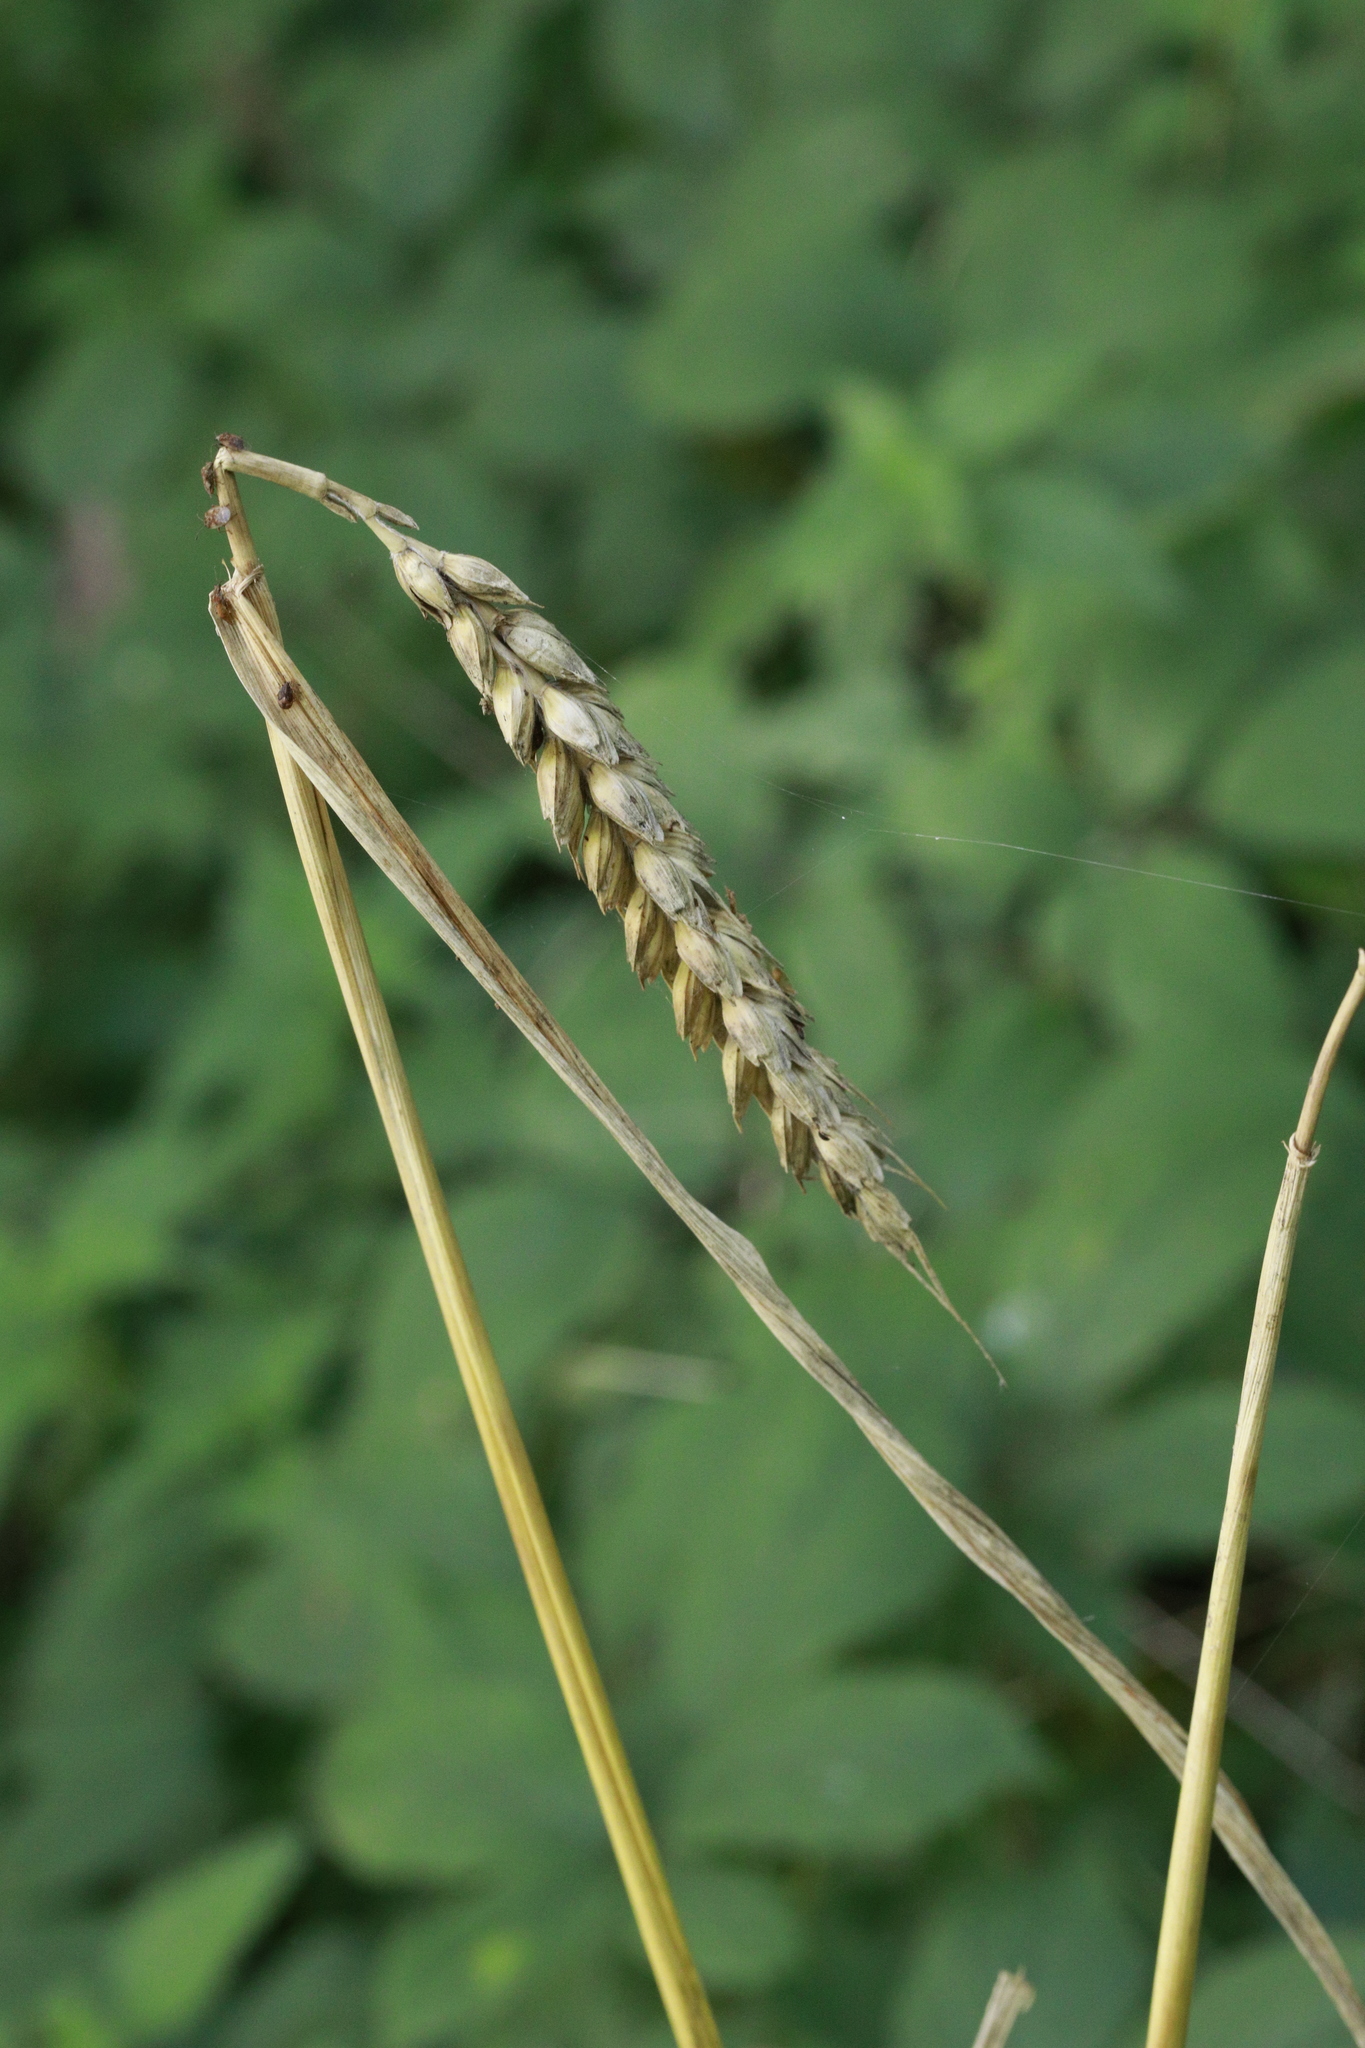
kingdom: Plantae
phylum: Tracheophyta
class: Liliopsida
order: Poales
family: Poaceae
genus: Triticum
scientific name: Triticum aestivum
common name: Common wheat
